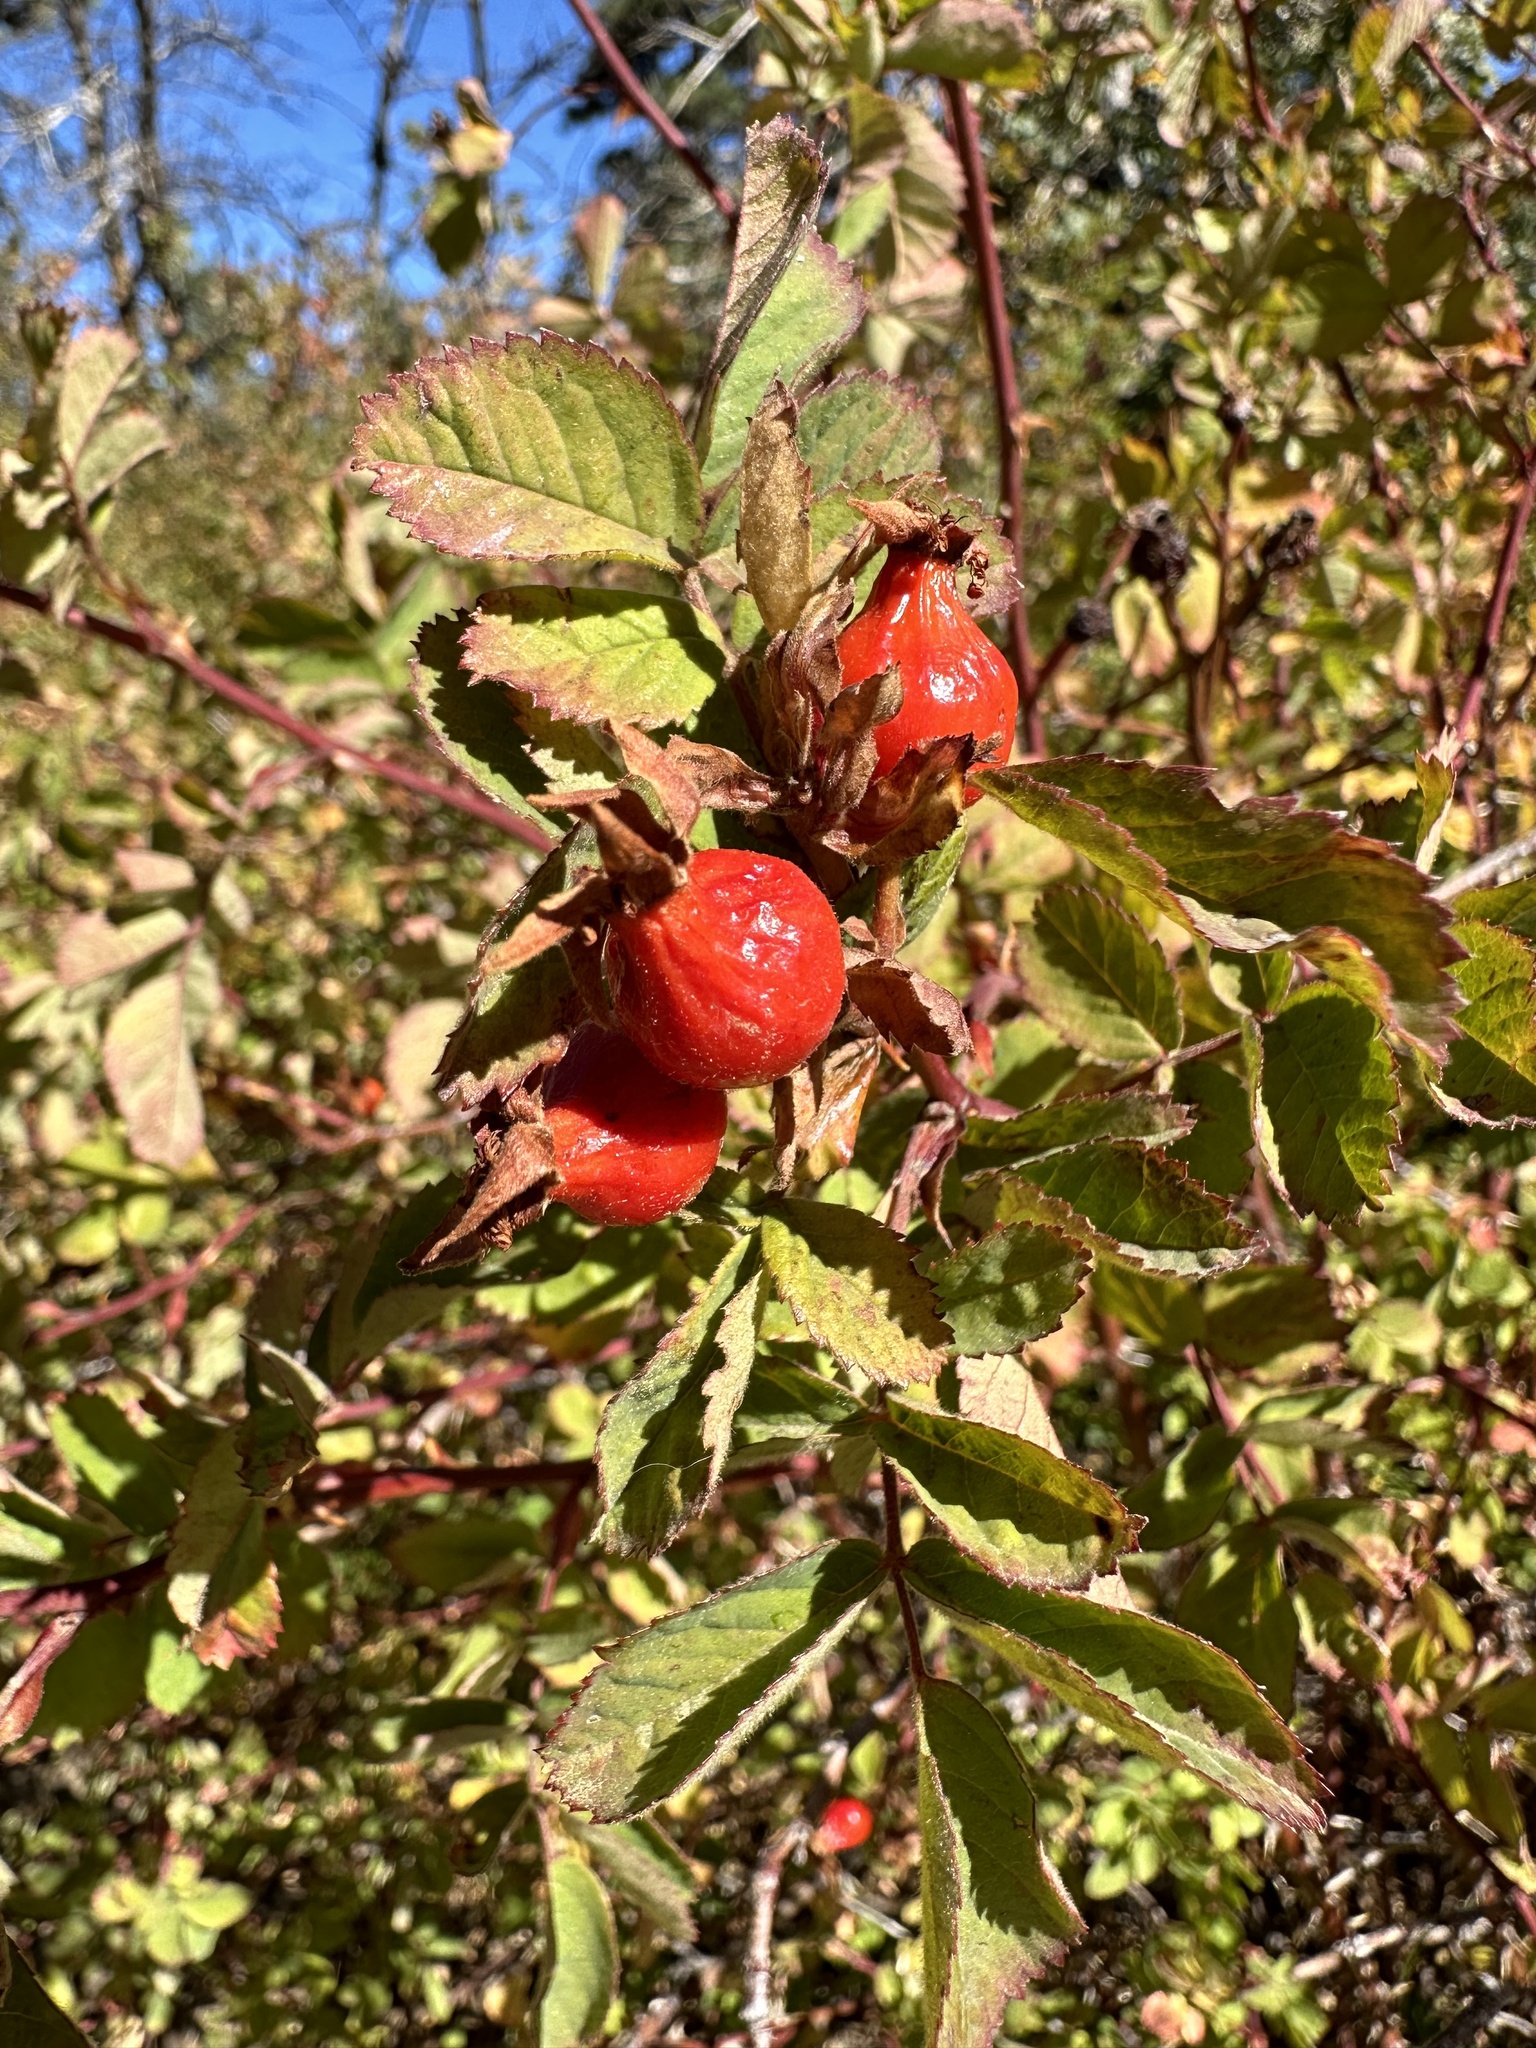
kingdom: Plantae
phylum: Tracheophyta
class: Magnoliopsida
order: Rosales
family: Rosaceae
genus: Rosa
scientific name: Rosa californica
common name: California rose
